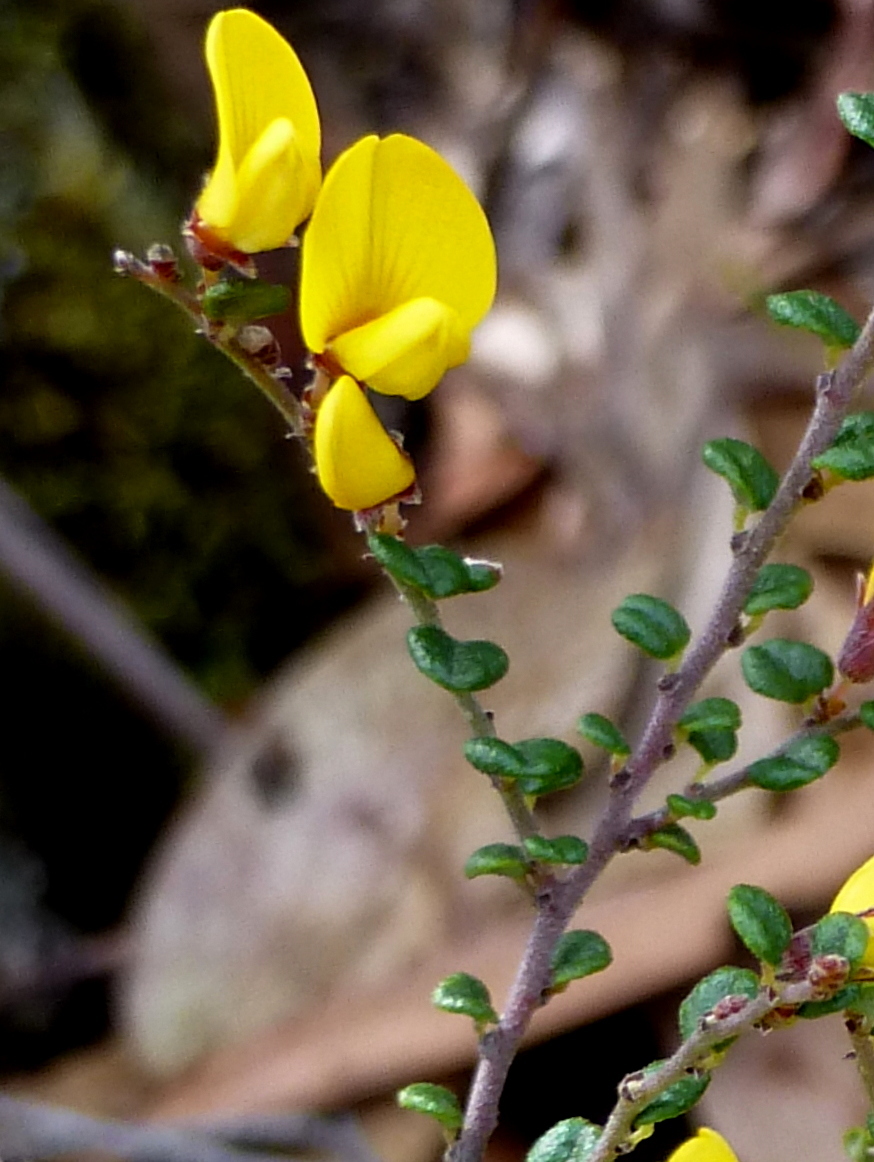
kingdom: Plantae
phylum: Tracheophyta
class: Magnoliopsida
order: Fabales
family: Fabaceae
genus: Bossiaea
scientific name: Bossiaea foliosa
